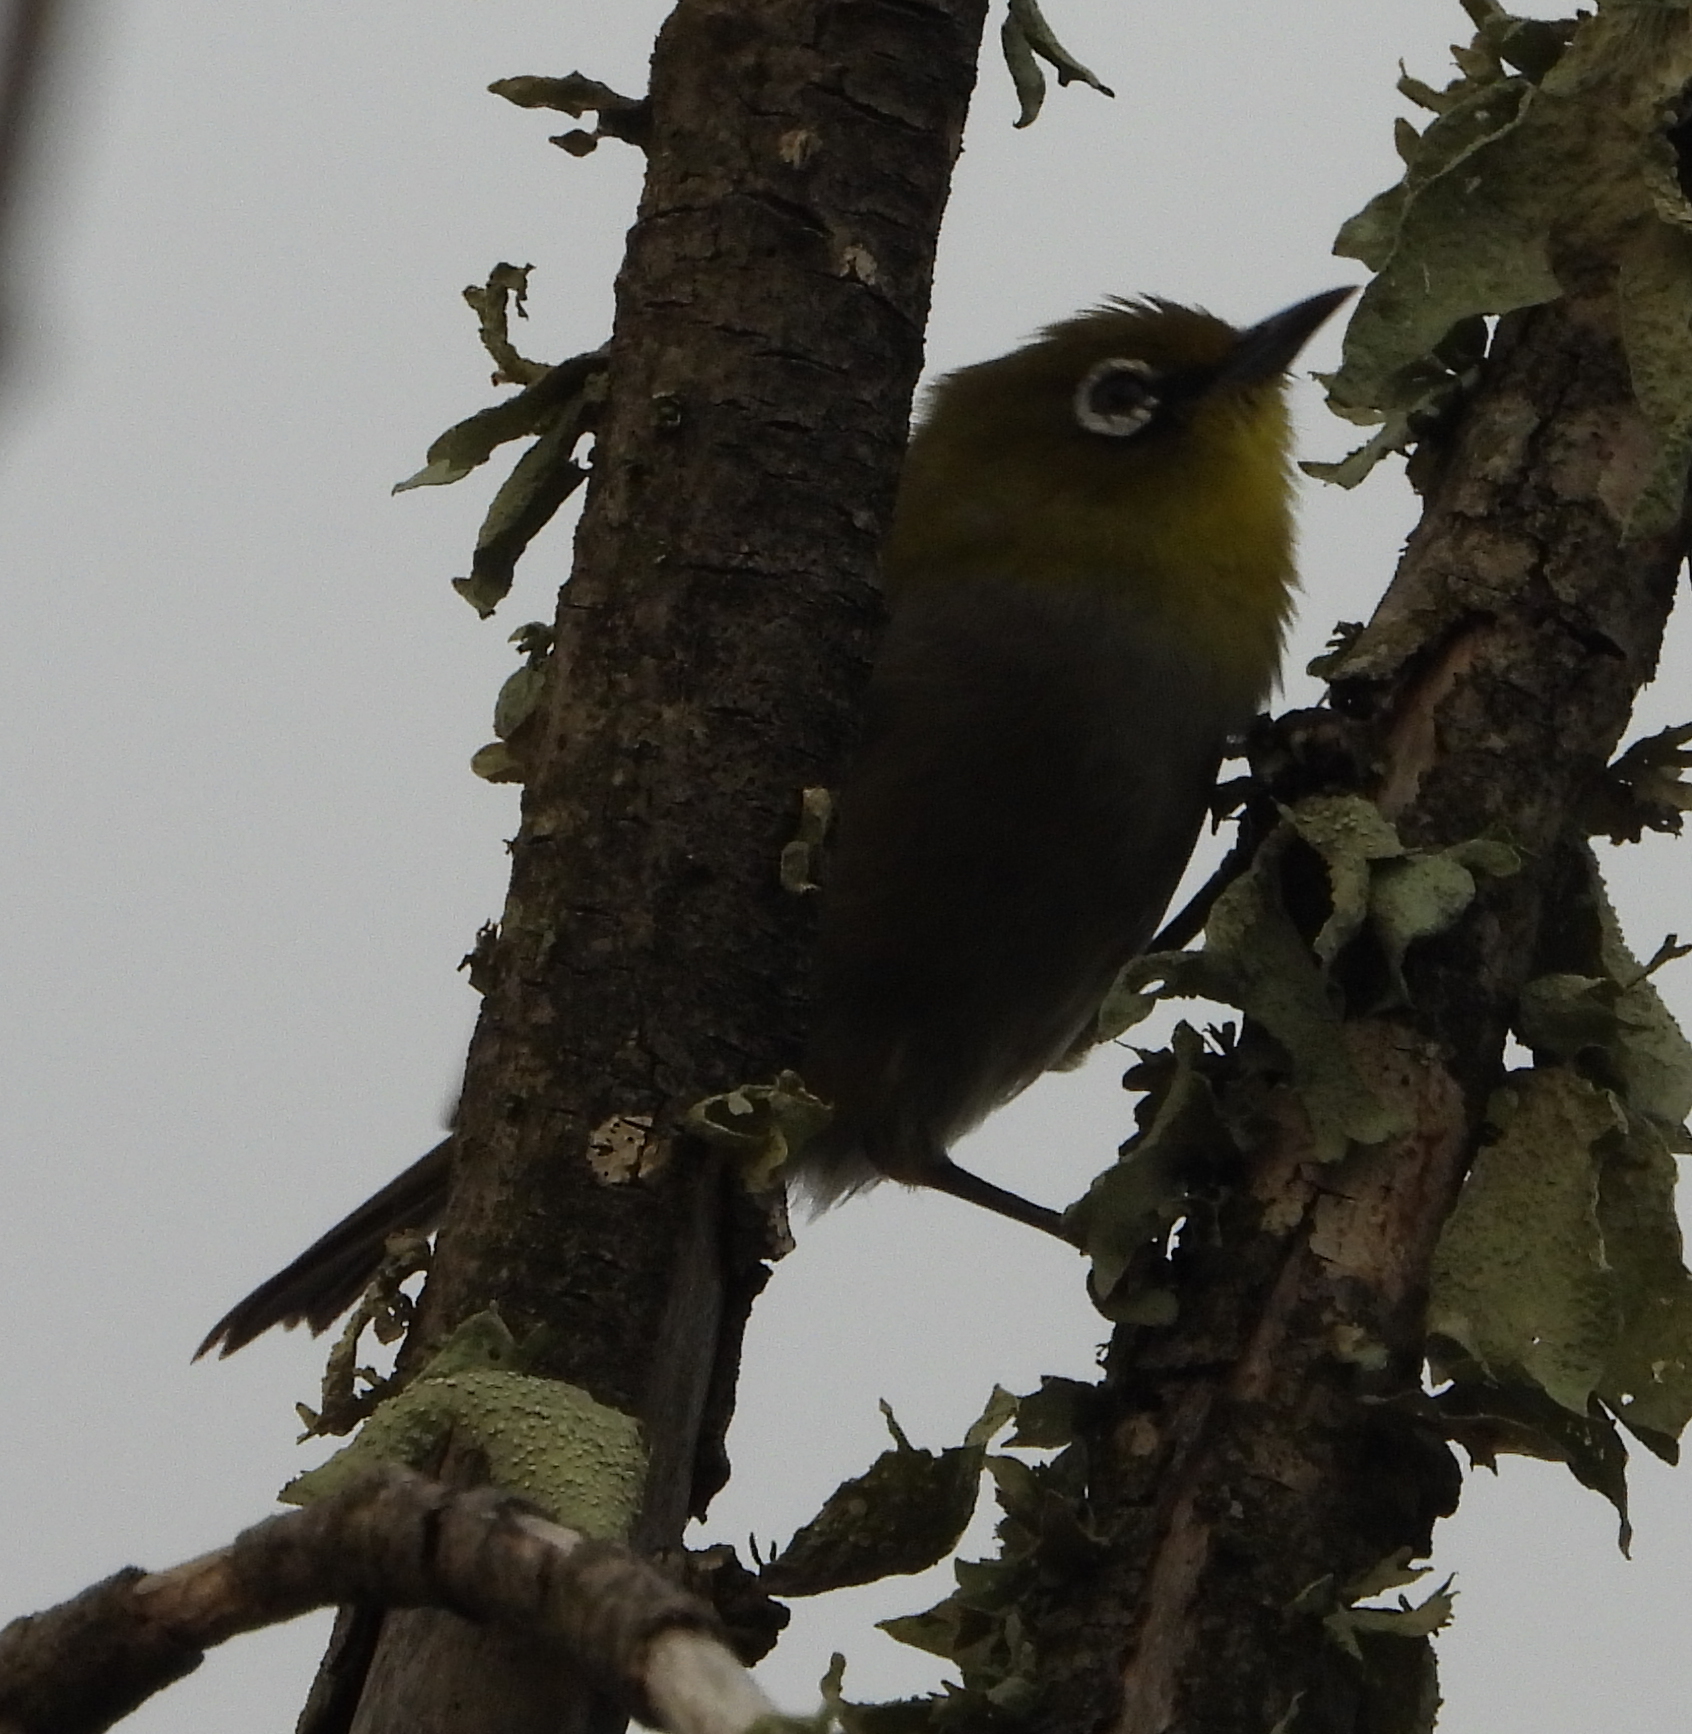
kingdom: Animalia
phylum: Chordata
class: Aves
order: Passeriformes
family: Zosteropidae
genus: Zosterops
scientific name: Zosterops virens
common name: Cape white-eye
